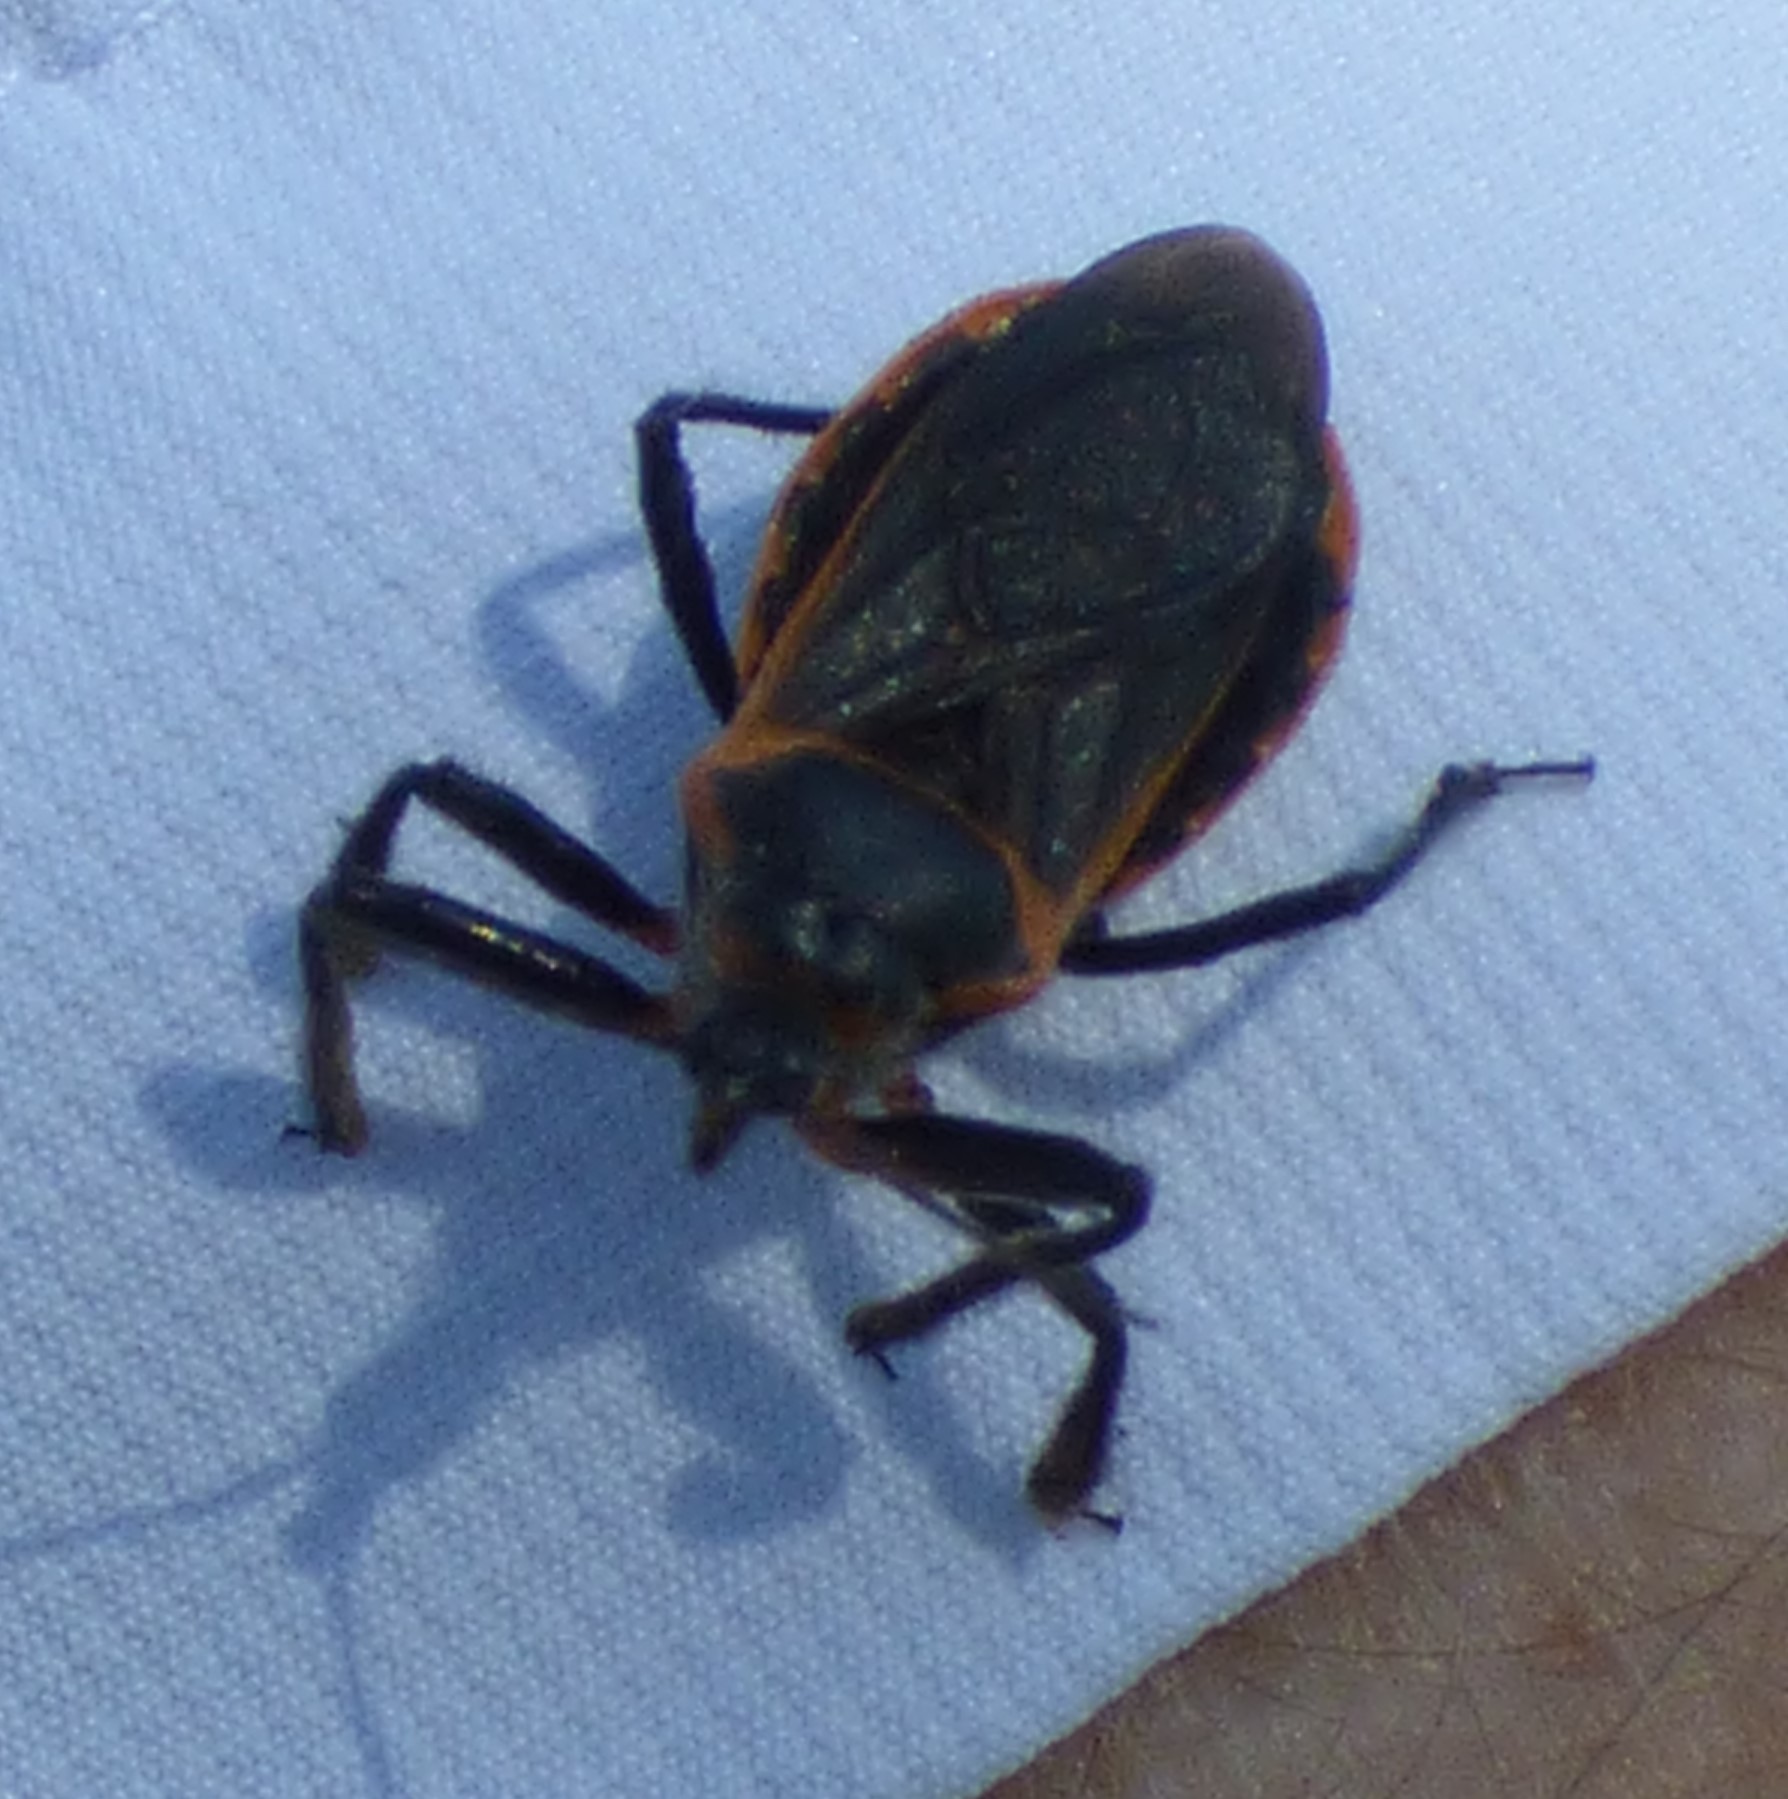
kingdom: Animalia
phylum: Arthropoda
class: Insecta
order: Hemiptera
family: Reduviidae
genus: Apiomerus
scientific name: Apiomerus crassipes
